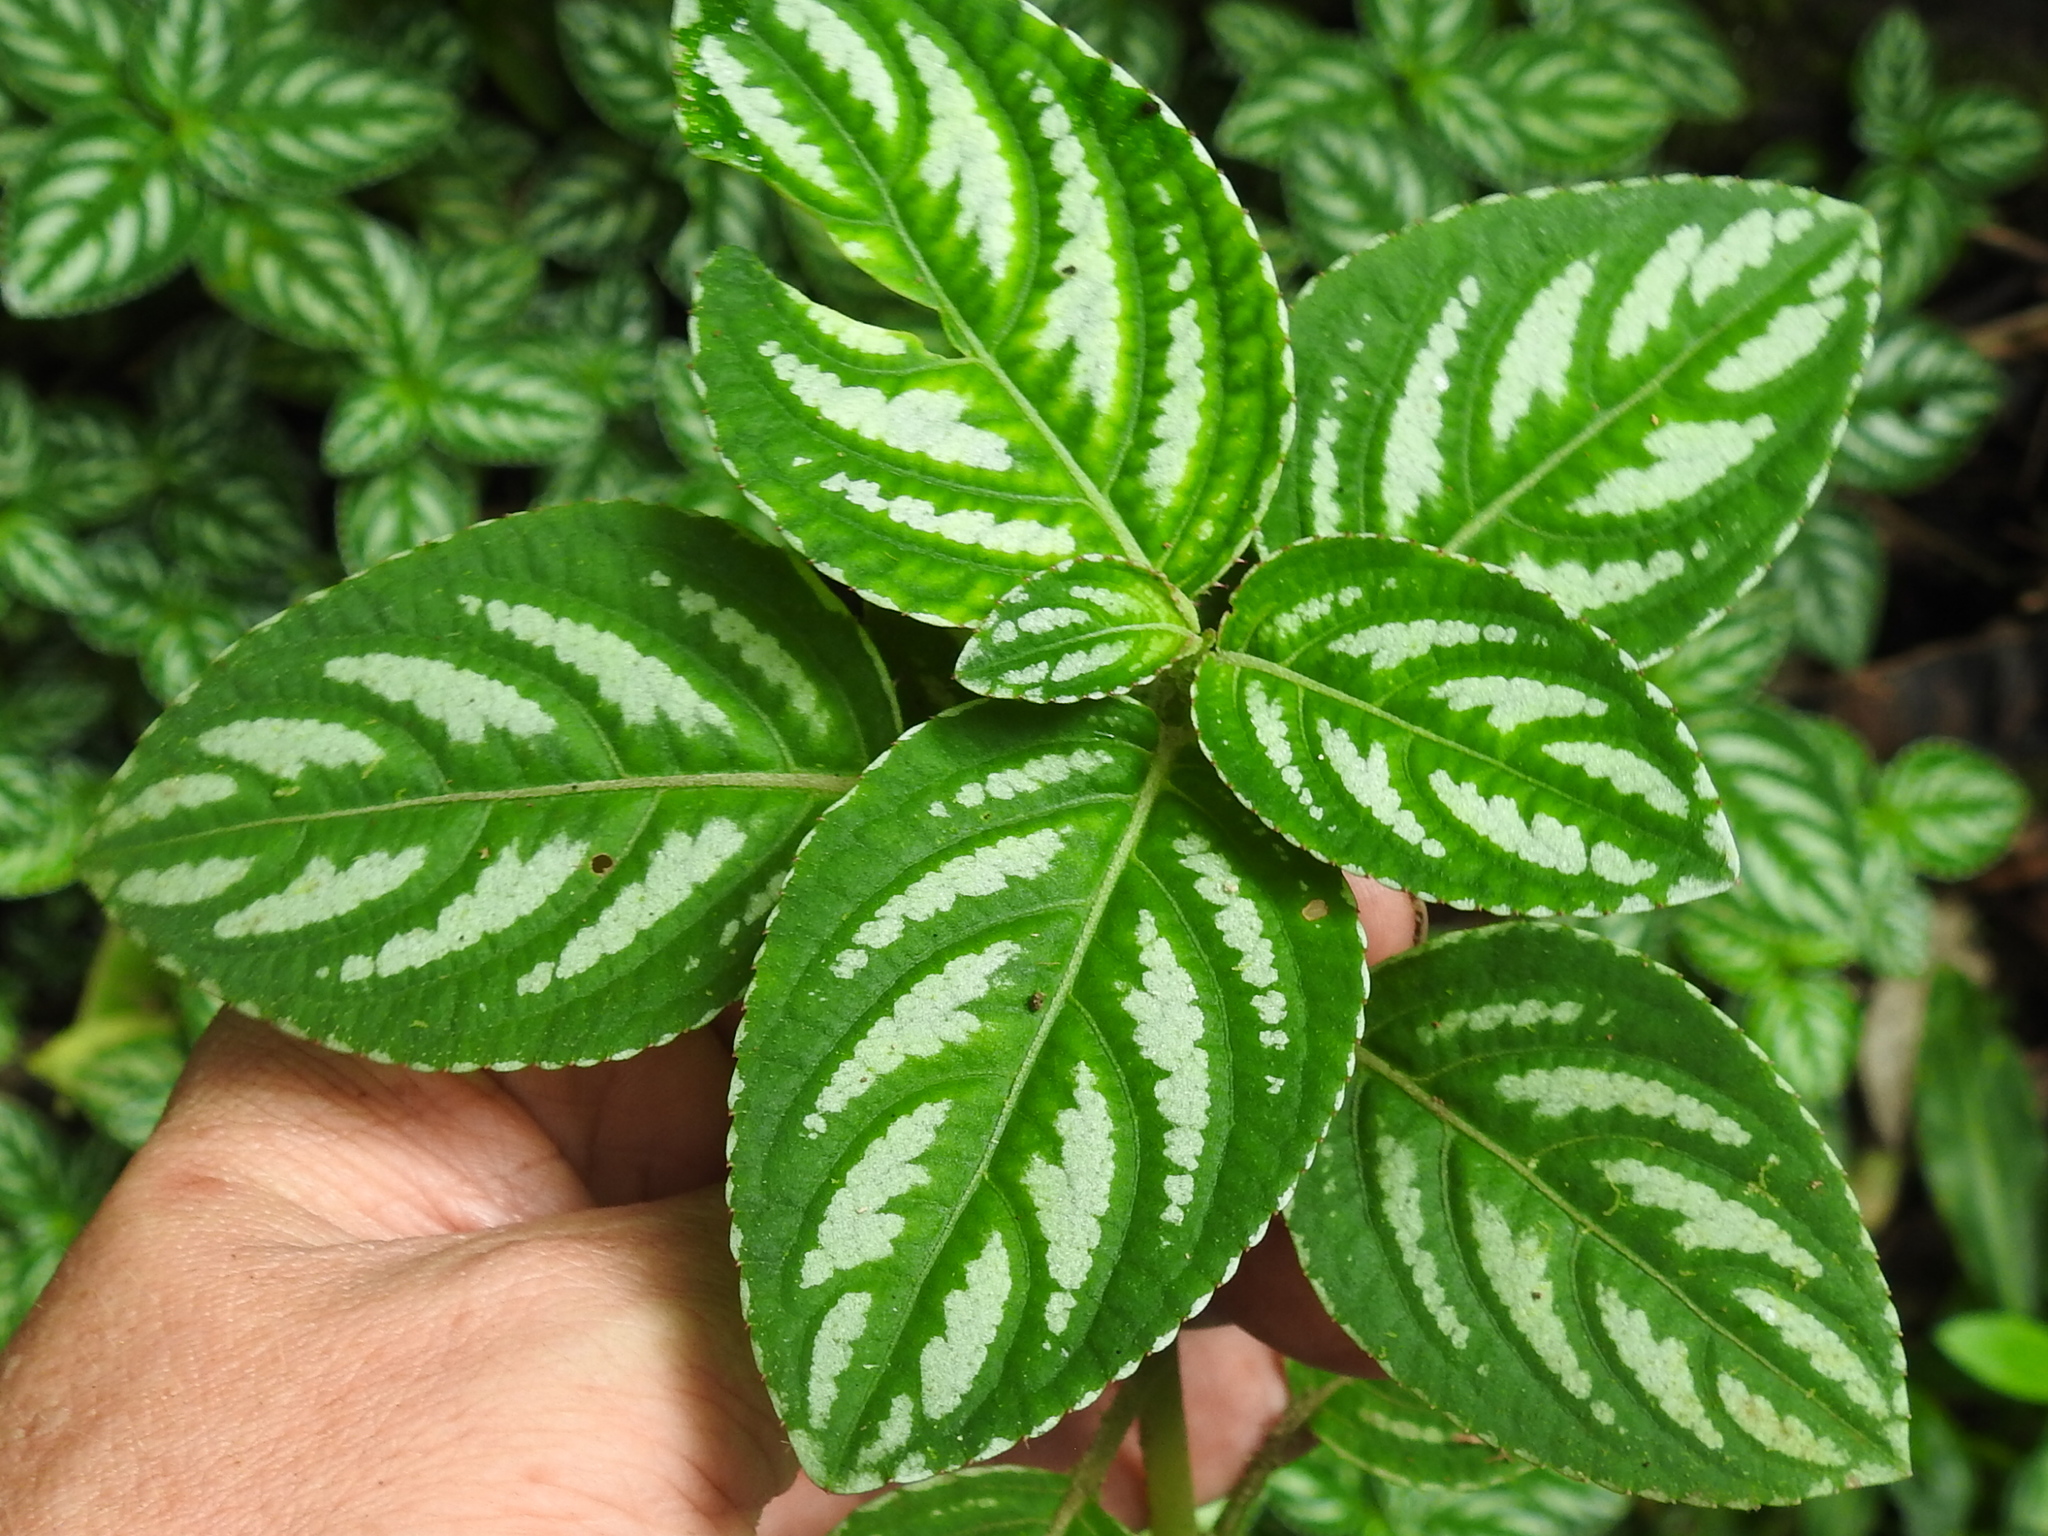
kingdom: Plantae
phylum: Tracheophyta
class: Magnoliopsida
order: Ericales
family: Balsaminaceae
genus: Impatiens
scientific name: Impatiens marianae
